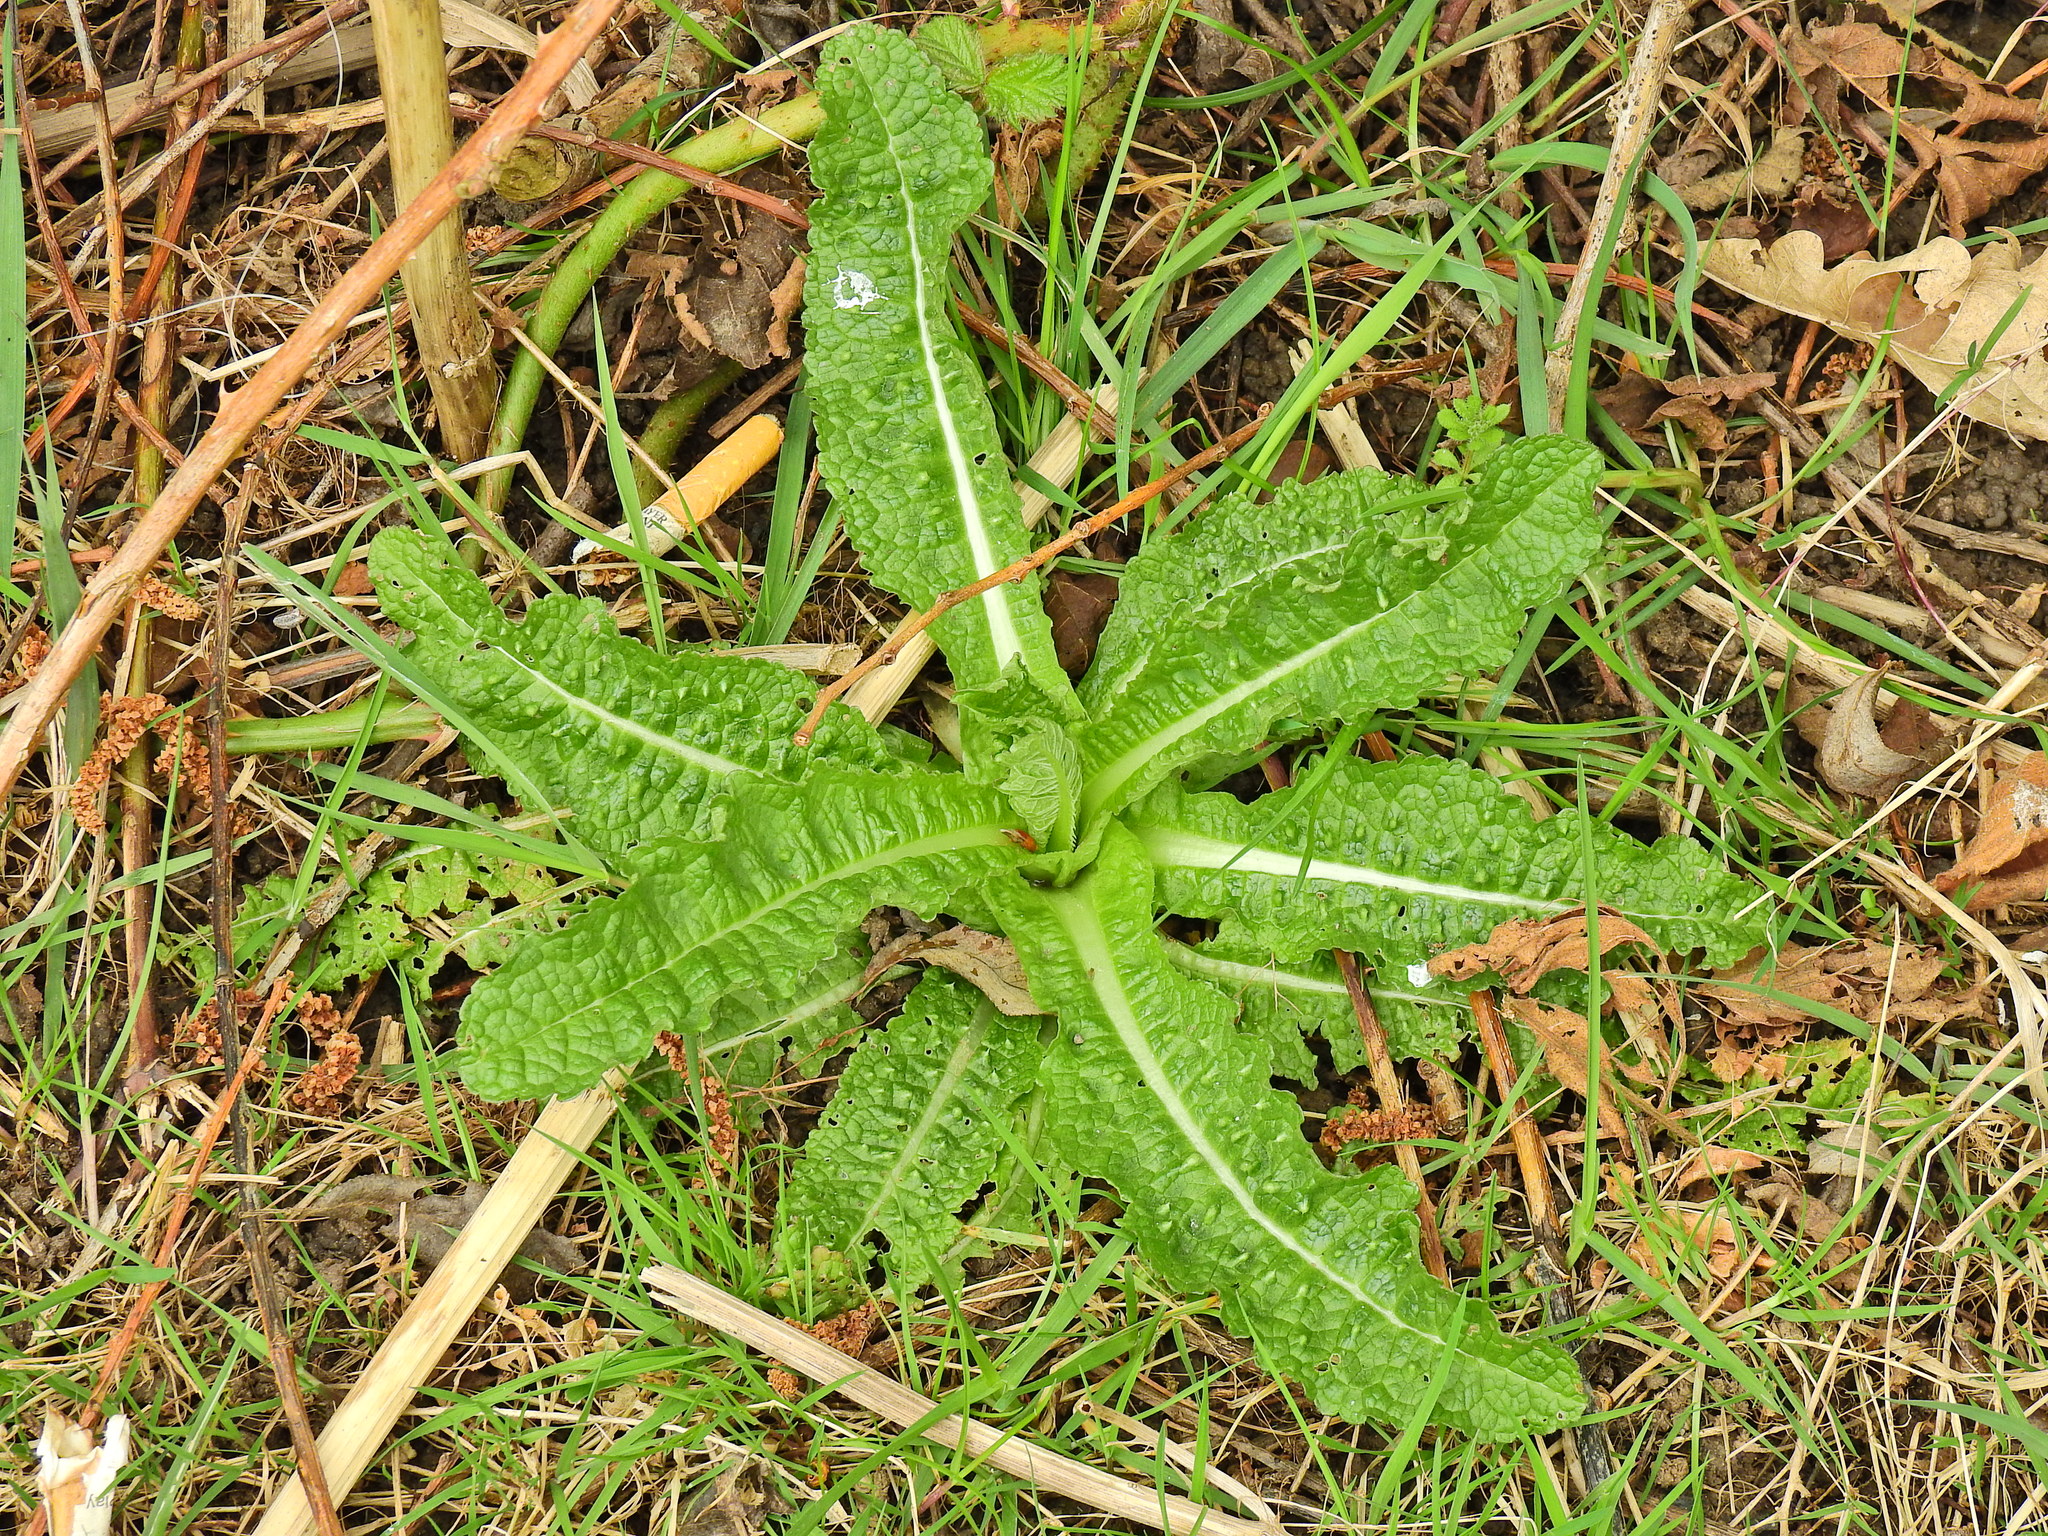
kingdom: Plantae
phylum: Tracheophyta
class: Magnoliopsida
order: Dipsacales
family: Caprifoliaceae
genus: Dipsacus
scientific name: Dipsacus fullonum
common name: Teasel
